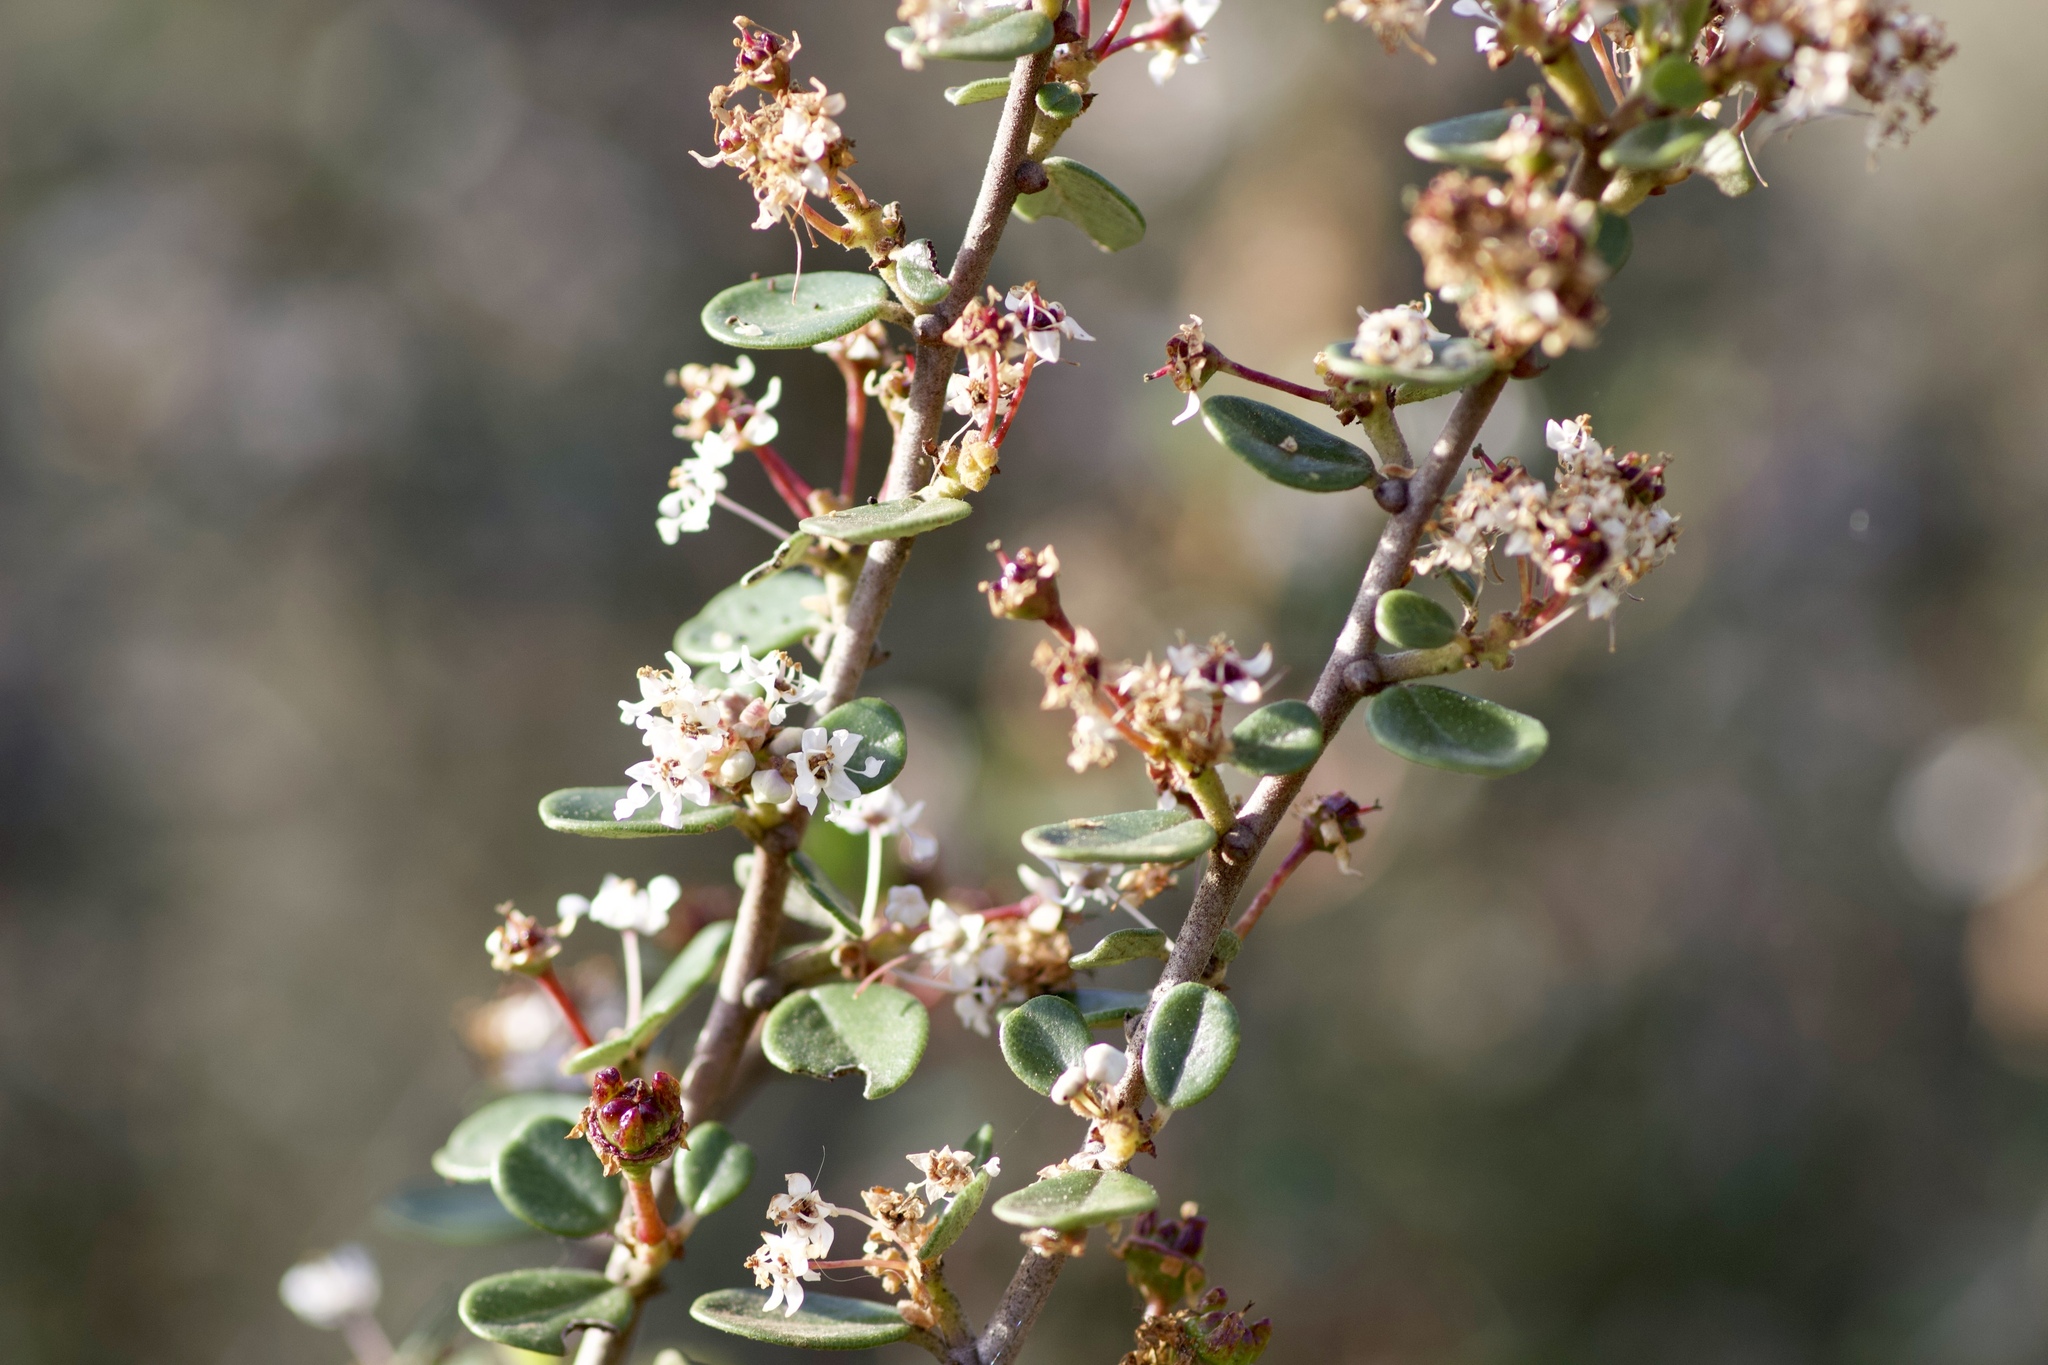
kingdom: Plantae
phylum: Tracheophyta
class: Magnoliopsida
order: Rosales
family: Rhamnaceae
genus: Ceanothus
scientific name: Ceanothus megacarpus
